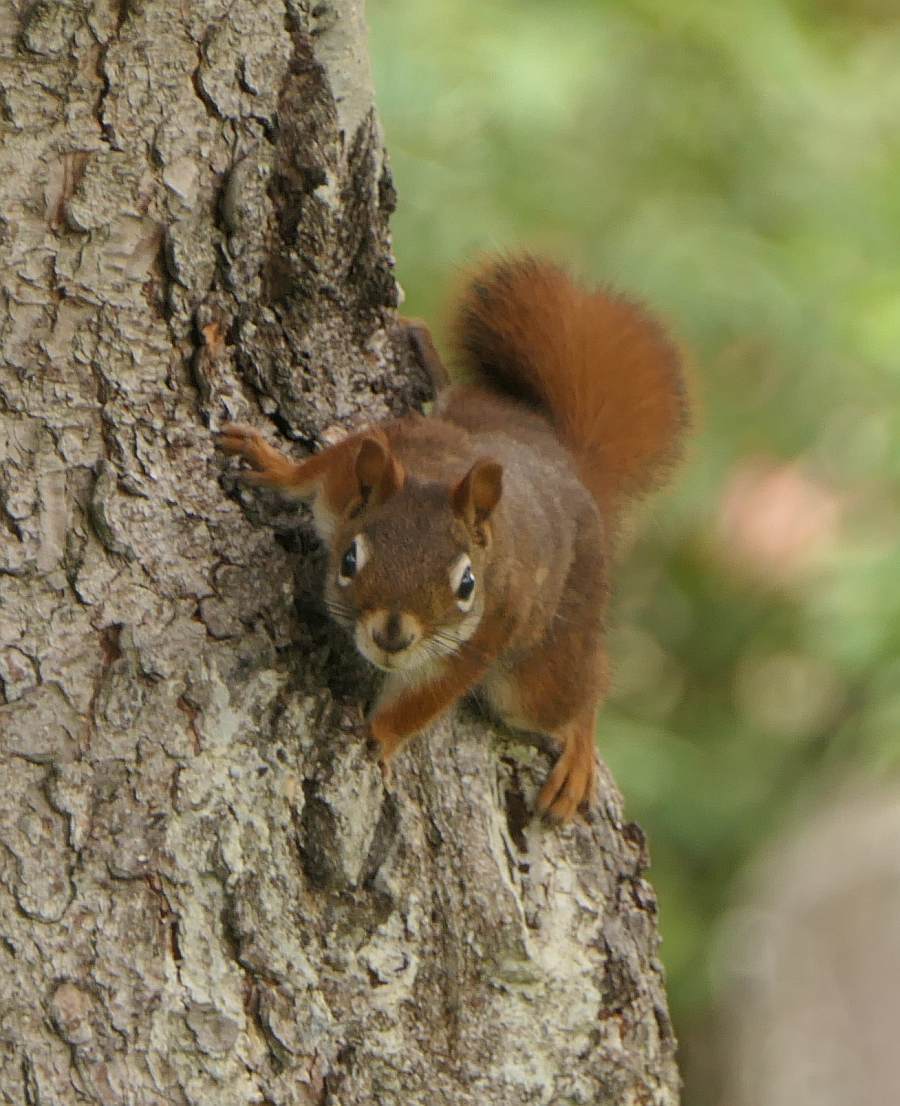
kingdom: Animalia
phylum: Chordata
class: Mammalia
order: Rodentia
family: Sciuridae
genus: Tamiasciurus
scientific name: Tamiasciurus hudsonicus
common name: Red squirrel
